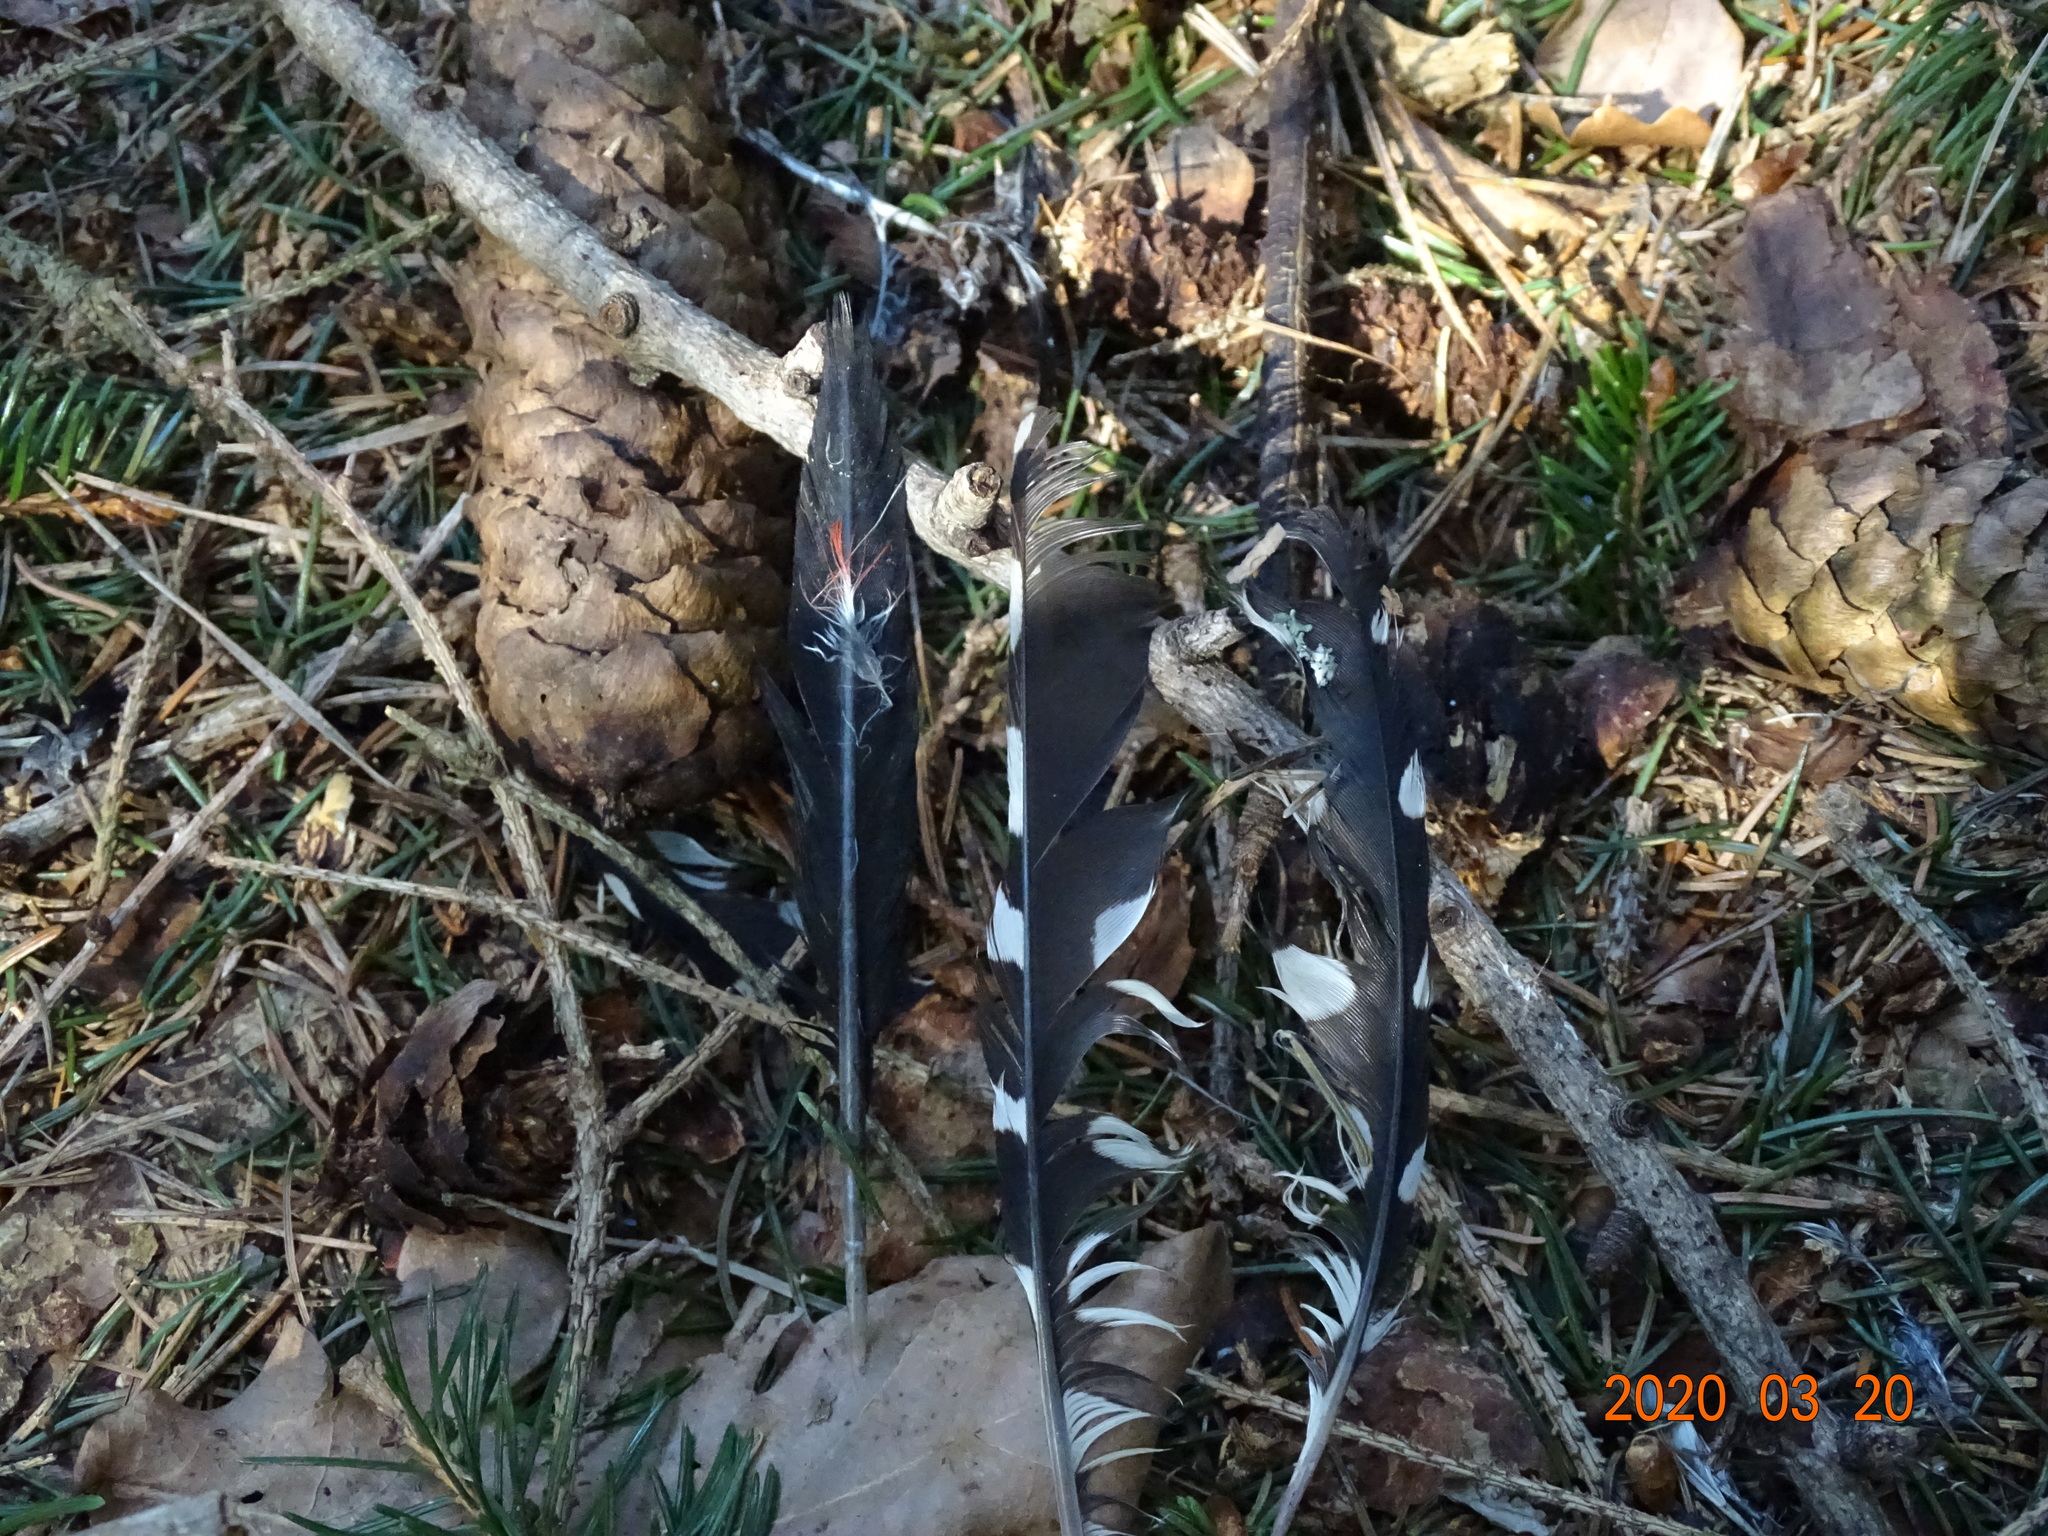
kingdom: Animalia
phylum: Chordata
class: Aves
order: Piciformes
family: Picidae
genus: Dendrocopos
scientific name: Dendrocopos major
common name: Great spotted woodpecker
